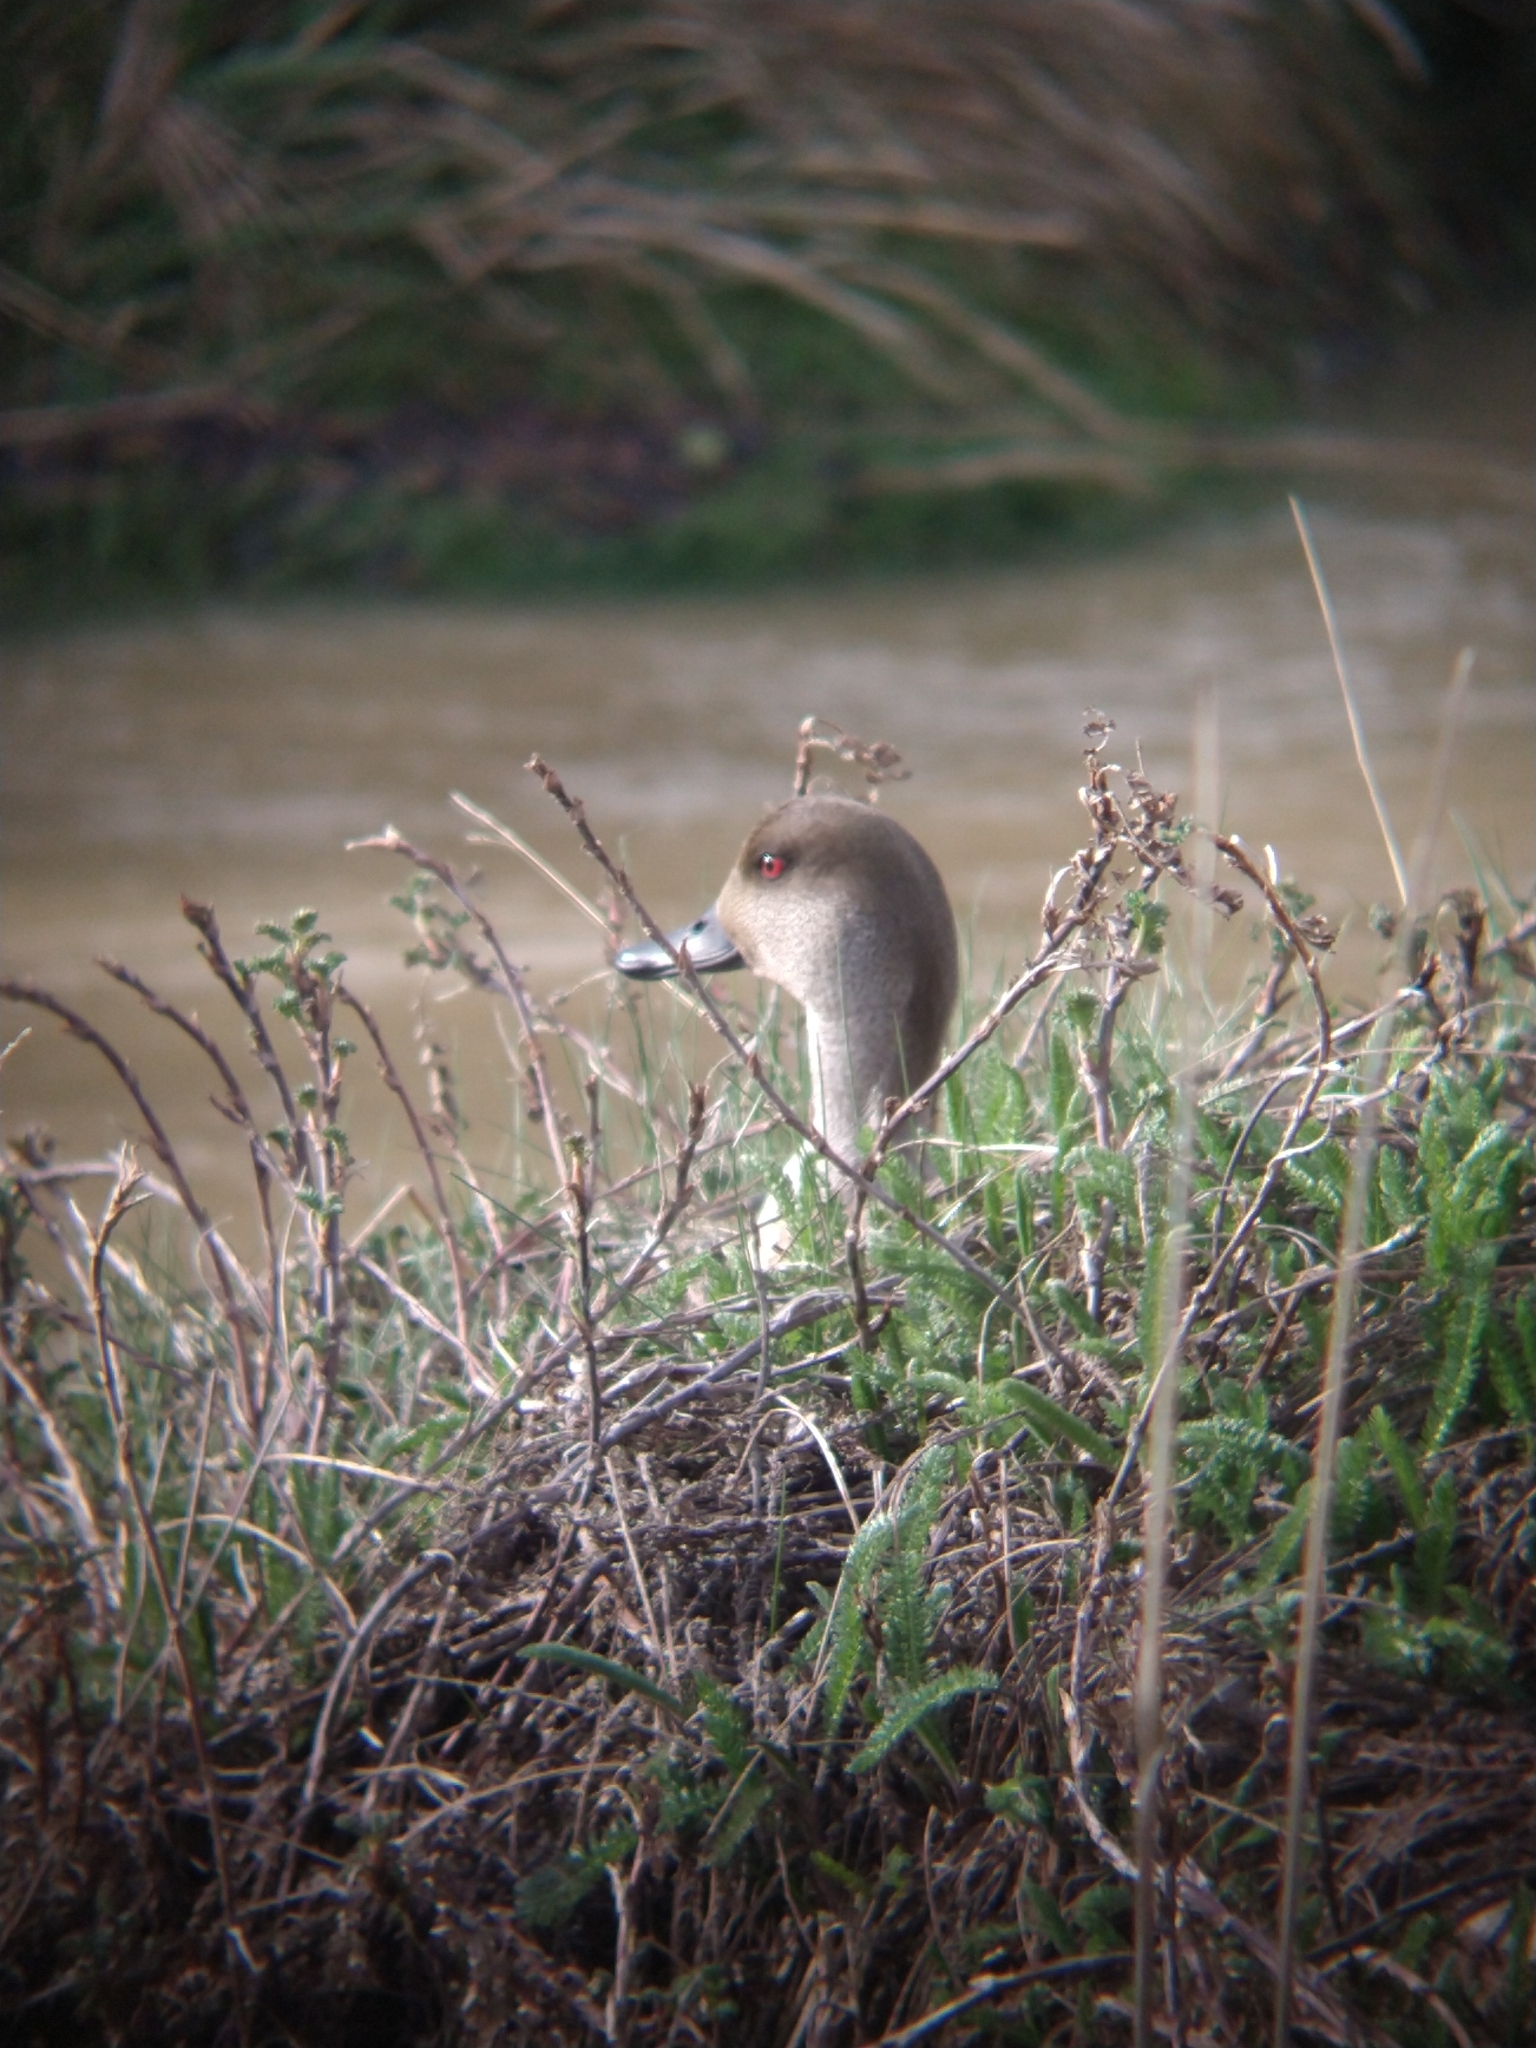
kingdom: Animalia
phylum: Chordata
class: Aves
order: Anseriformes
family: Anatidae
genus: Lophonetta
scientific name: Lophonetta specularioides
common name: Crested duck
